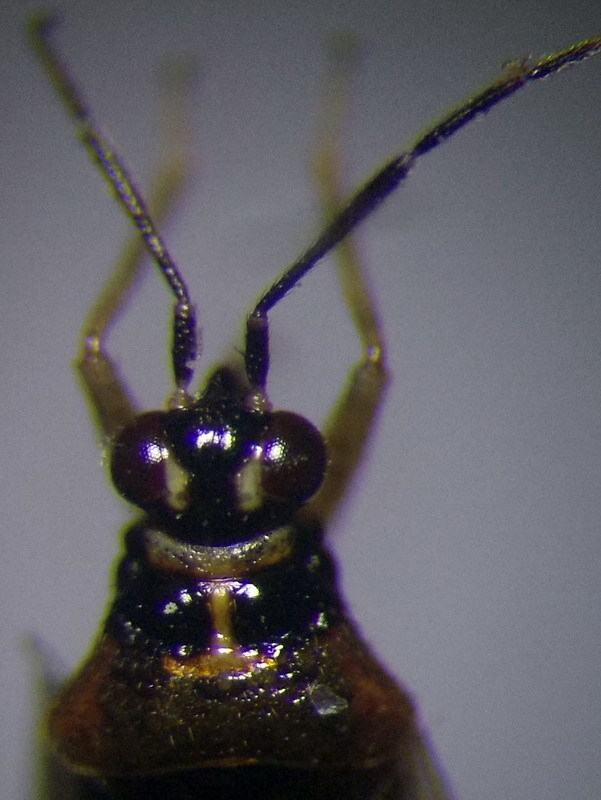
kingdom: Animalia
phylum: Arthropoda
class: Insecta
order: Hemiptera
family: Miridae
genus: Dicyphus
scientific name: Dicyphus globulifer
